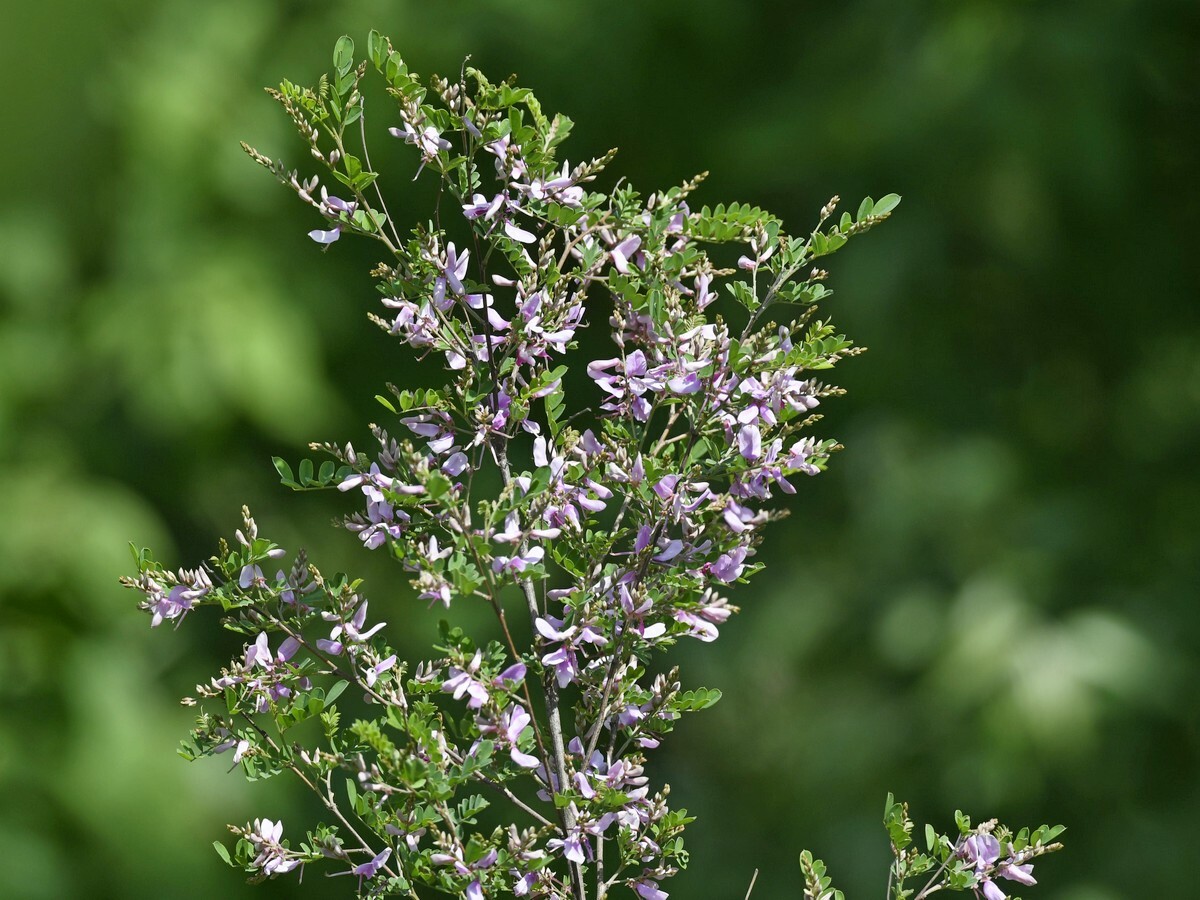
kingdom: Plantae
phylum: Tracheophyta
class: Magnoliopsida
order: Fabales
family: Fabaceae
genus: Vicia
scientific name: Vicia villosa
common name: Fodder vetch
